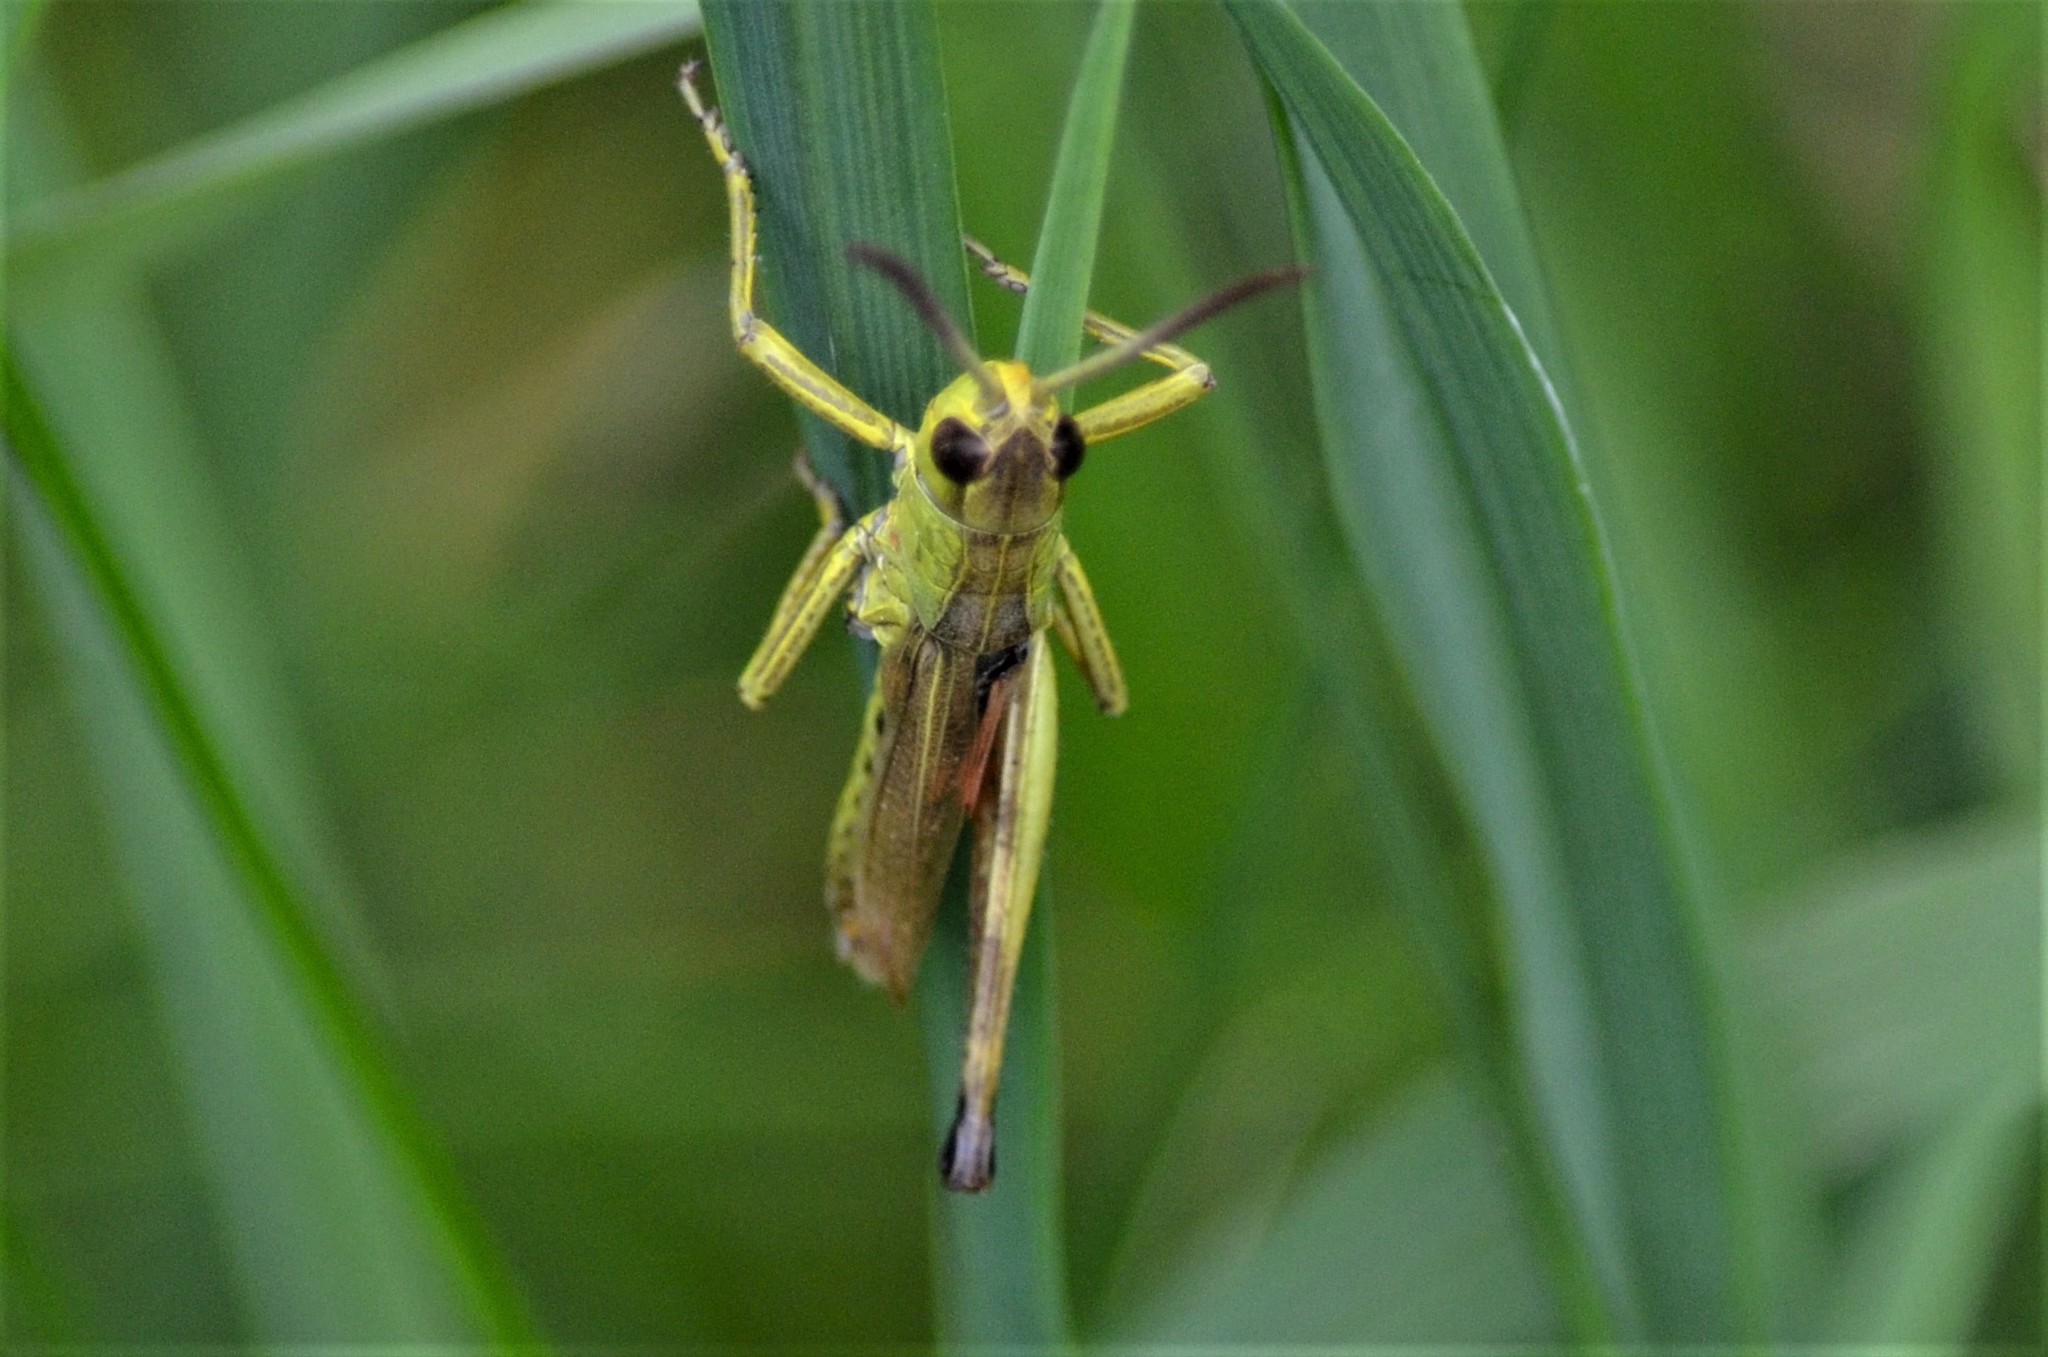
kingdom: Animalia
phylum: Arthropoda
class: Insecta
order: Orthoptera
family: Acrididae
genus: Pseudochorthippus
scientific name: Pseudochorthippus parallelus
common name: Meadow grasshopper
